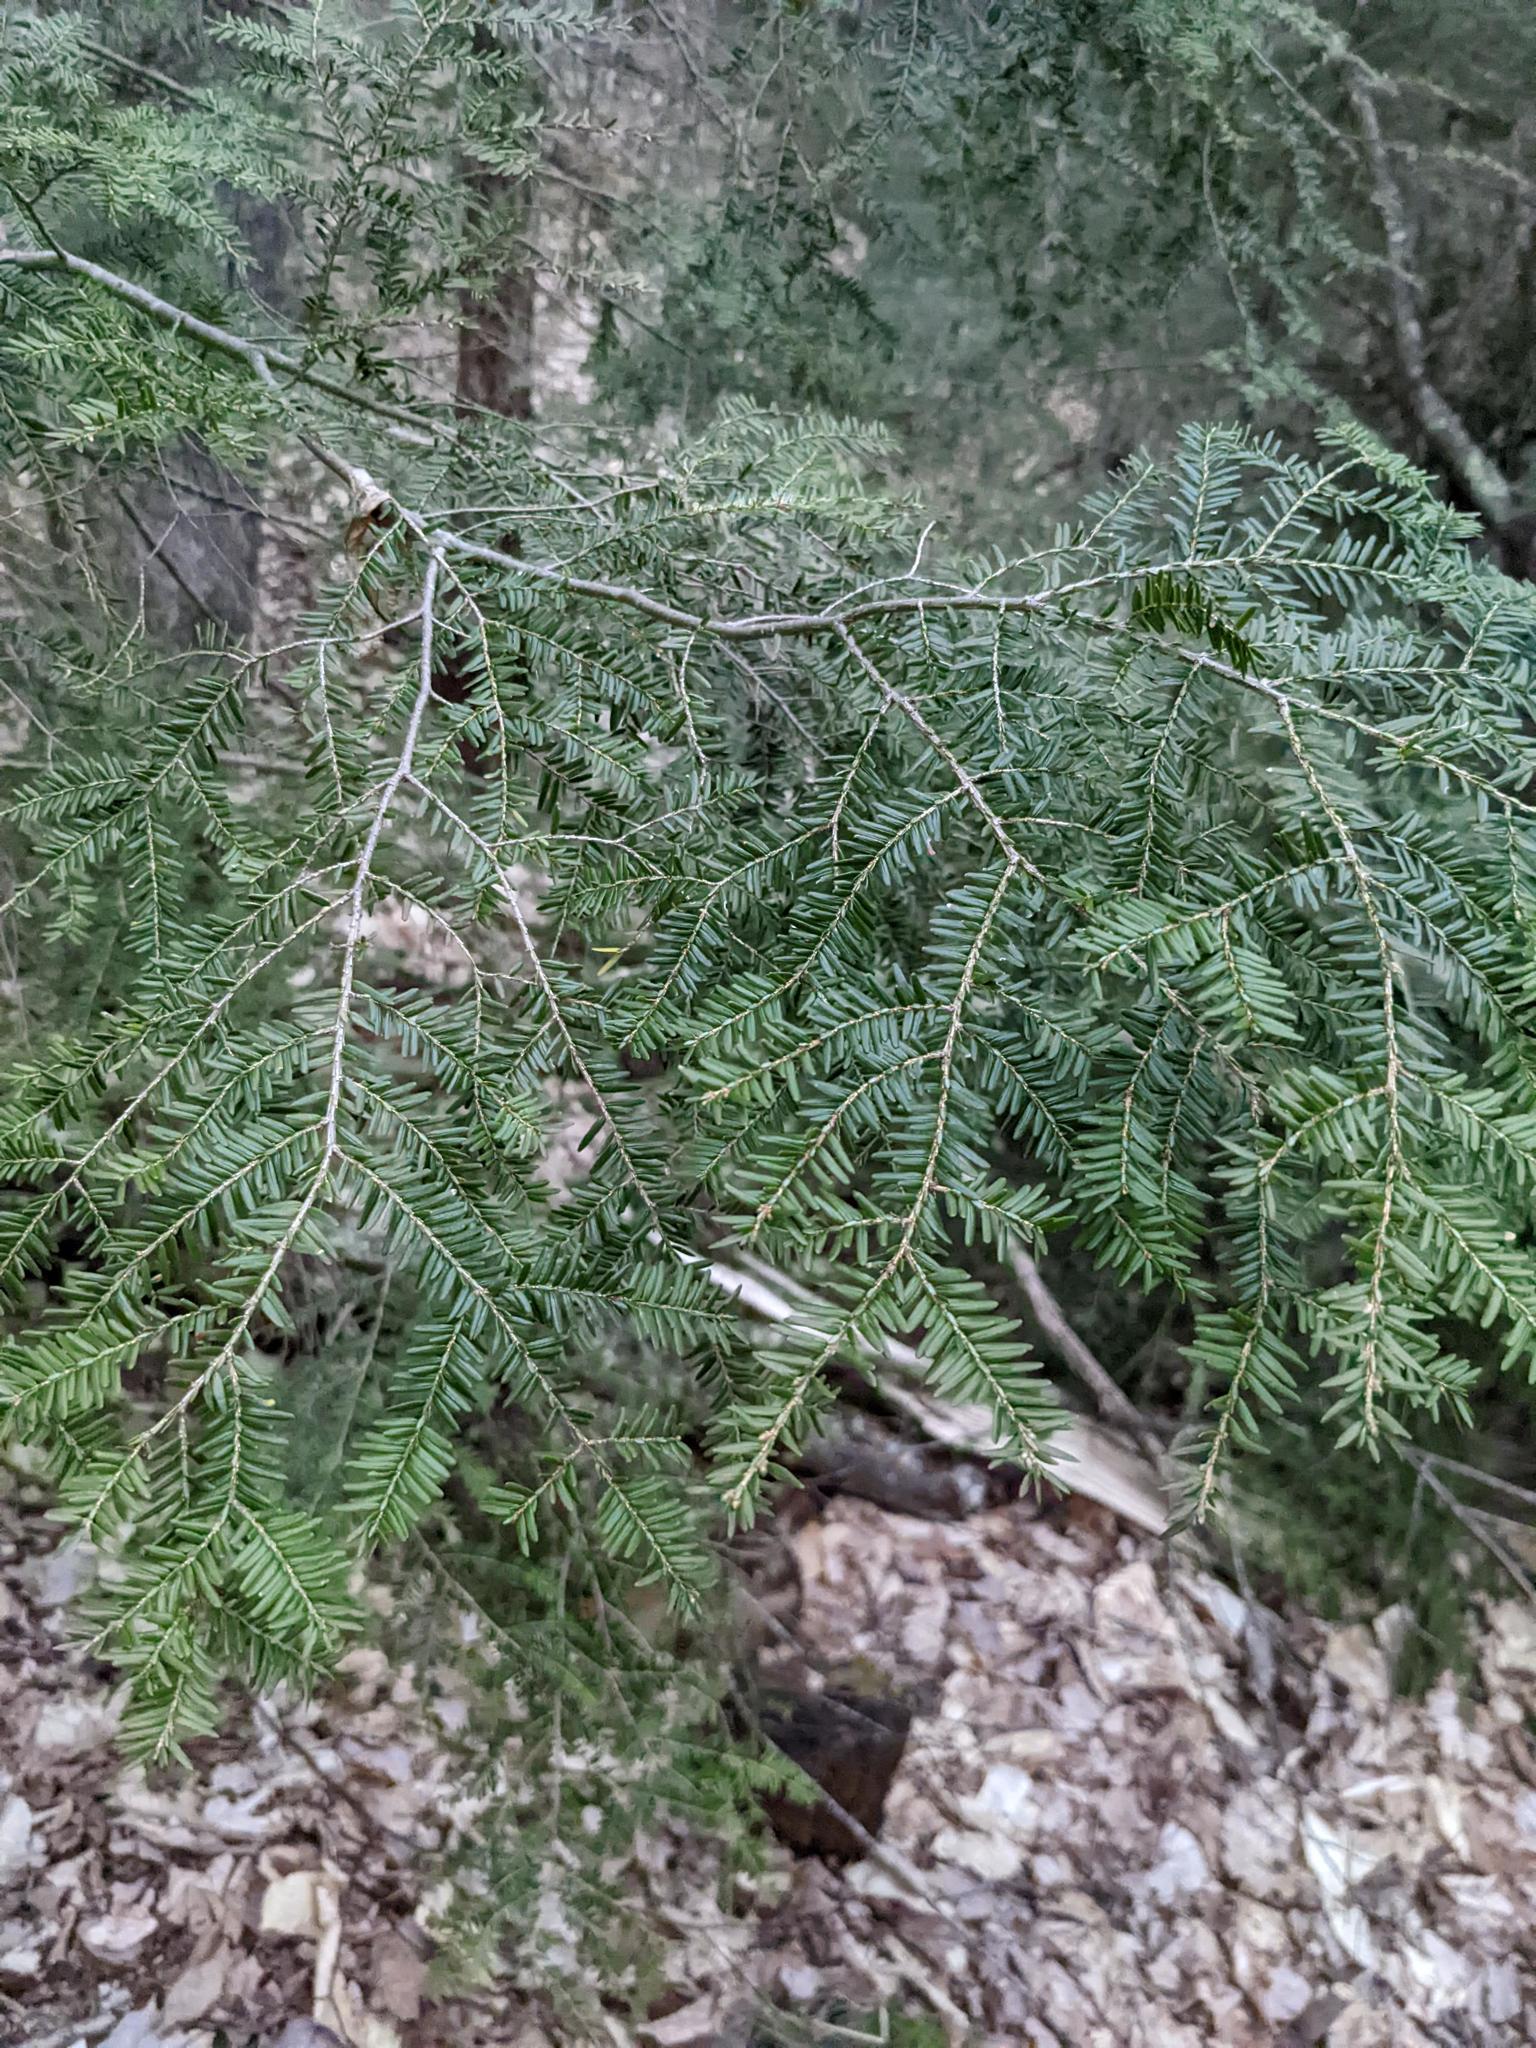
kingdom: Plantae
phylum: Tracheophyta
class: Pinopsida
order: Pinales
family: Pinaceae
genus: Tsuga
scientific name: Tsuga canadensis
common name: Eastern hemlock
